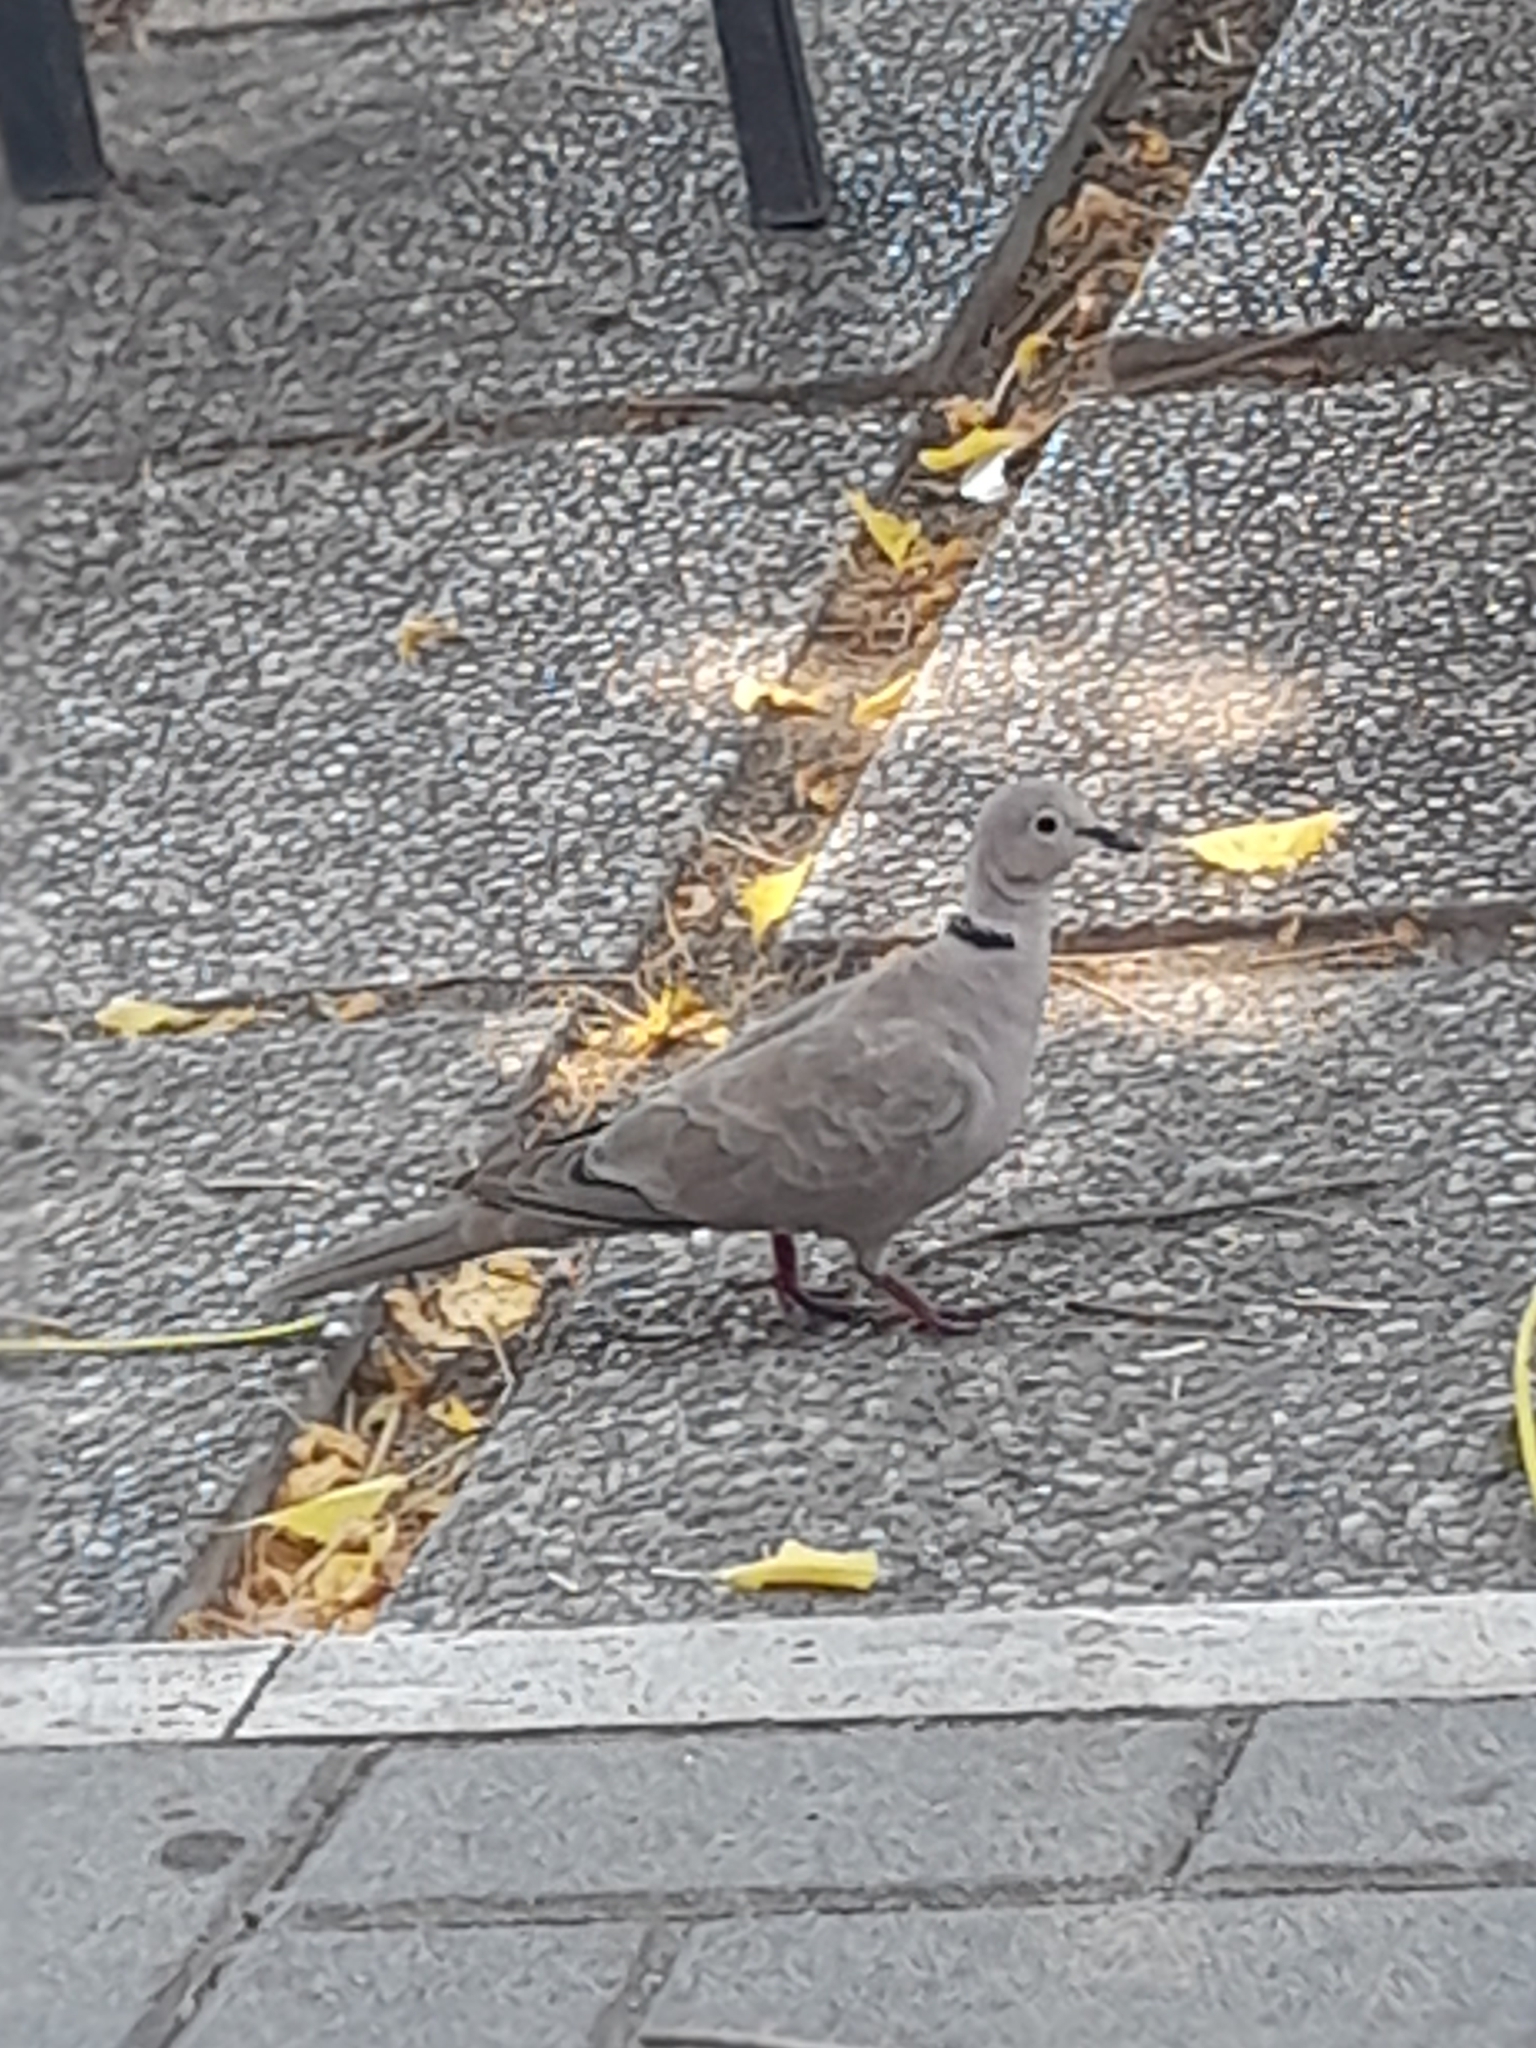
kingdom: Animalia
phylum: Chordata
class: Aves
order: Columbiformes
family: Columbidae
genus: Streptopelia
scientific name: Streptopelia decaocto
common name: Eurasian collared dove
